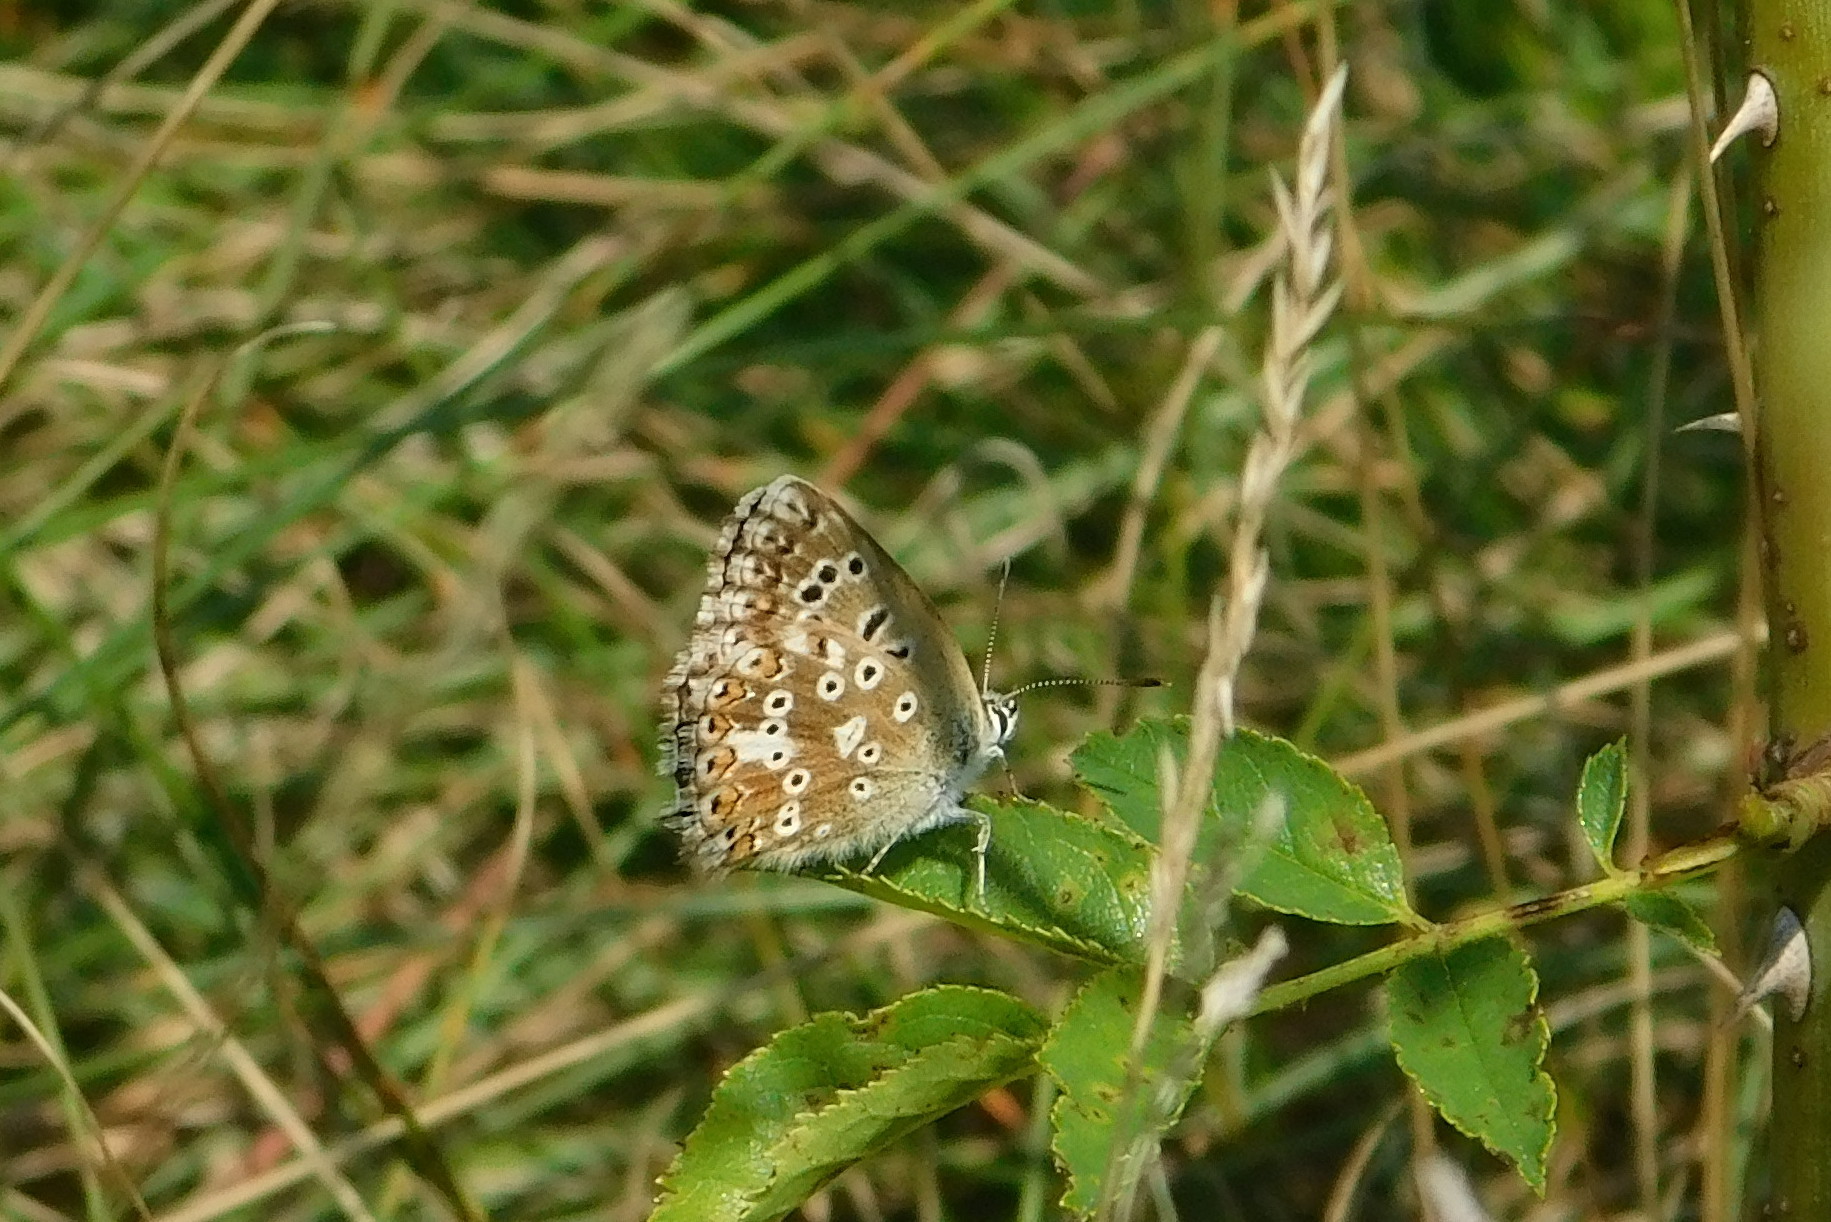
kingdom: Animalia
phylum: Arthropoda
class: Insecta
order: Lepidoptera
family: Lycaenidae
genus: Lysandra
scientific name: Lysandra coridon
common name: Chalkhill blue
